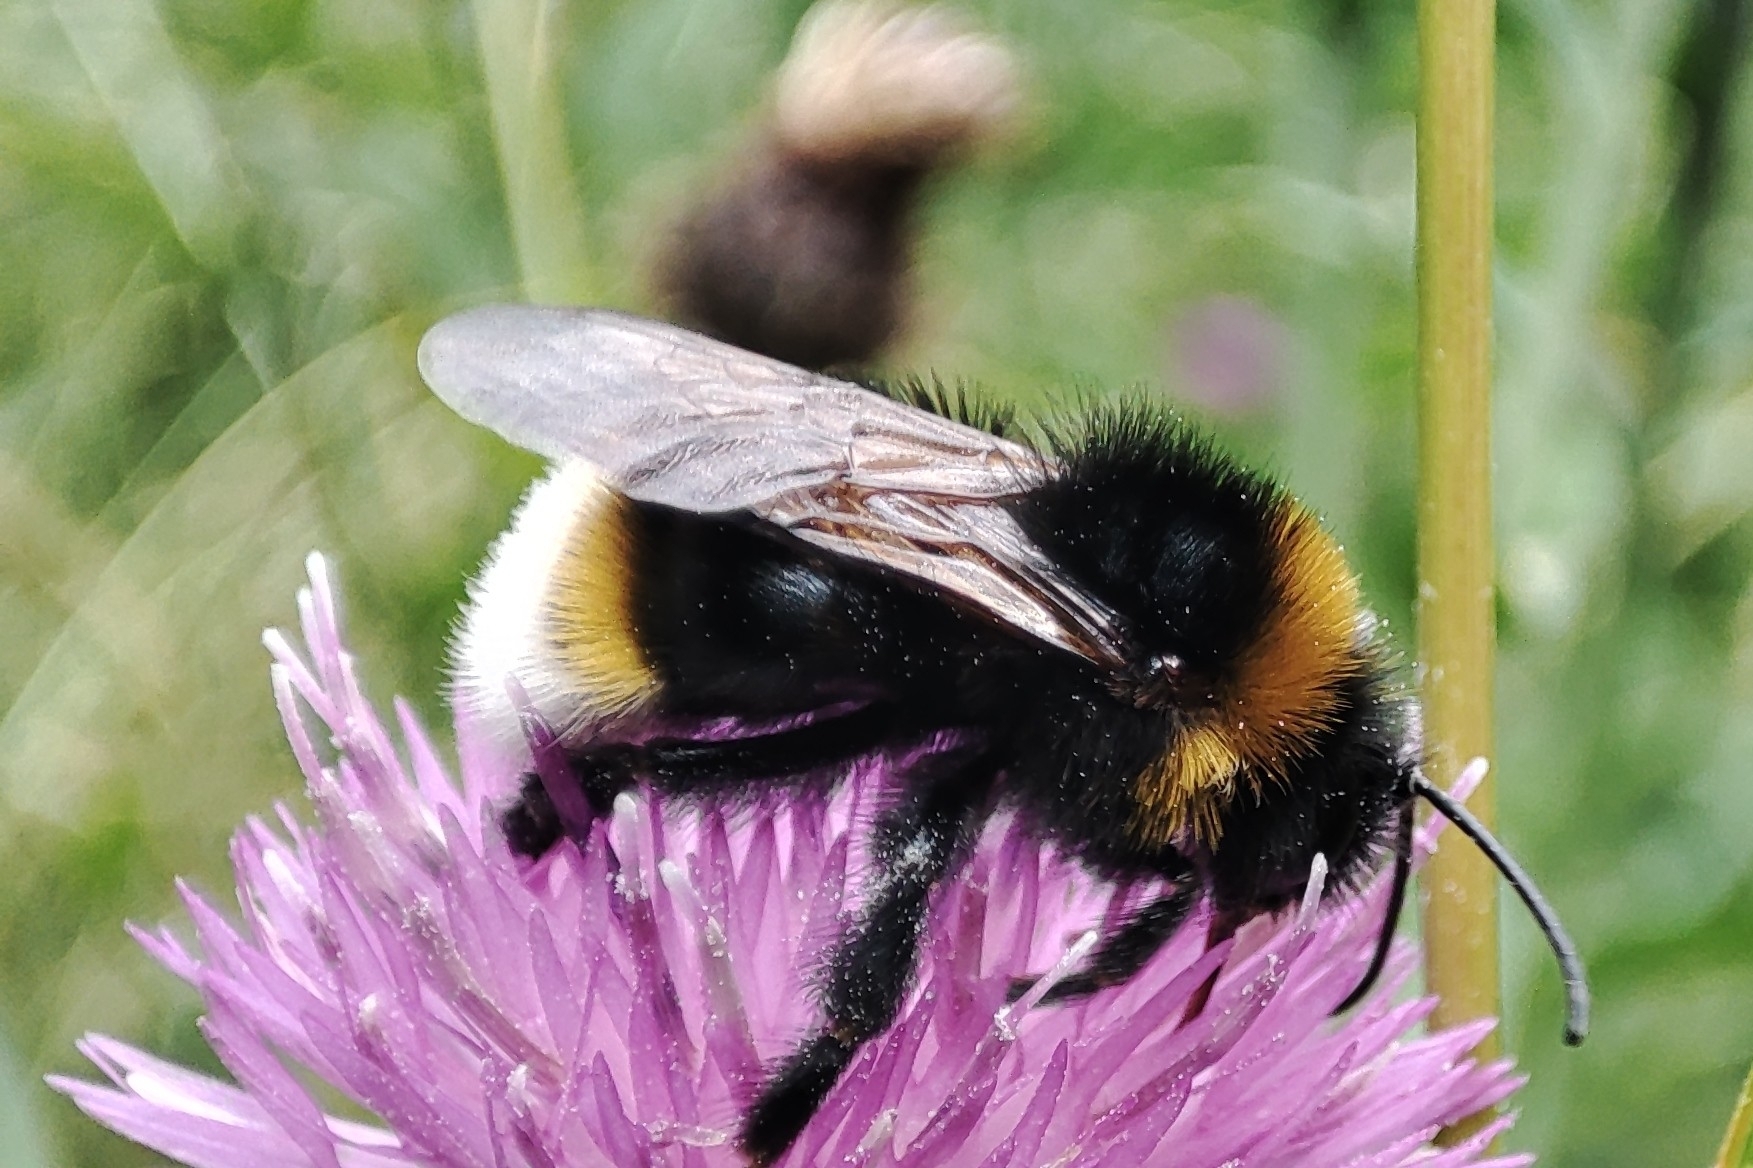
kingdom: Animalia
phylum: Arthropoda
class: Insecta
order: Hymenoptera
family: Apidae
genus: Bombus
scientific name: Bombus vestalis
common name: Vestal cuckoo bee
